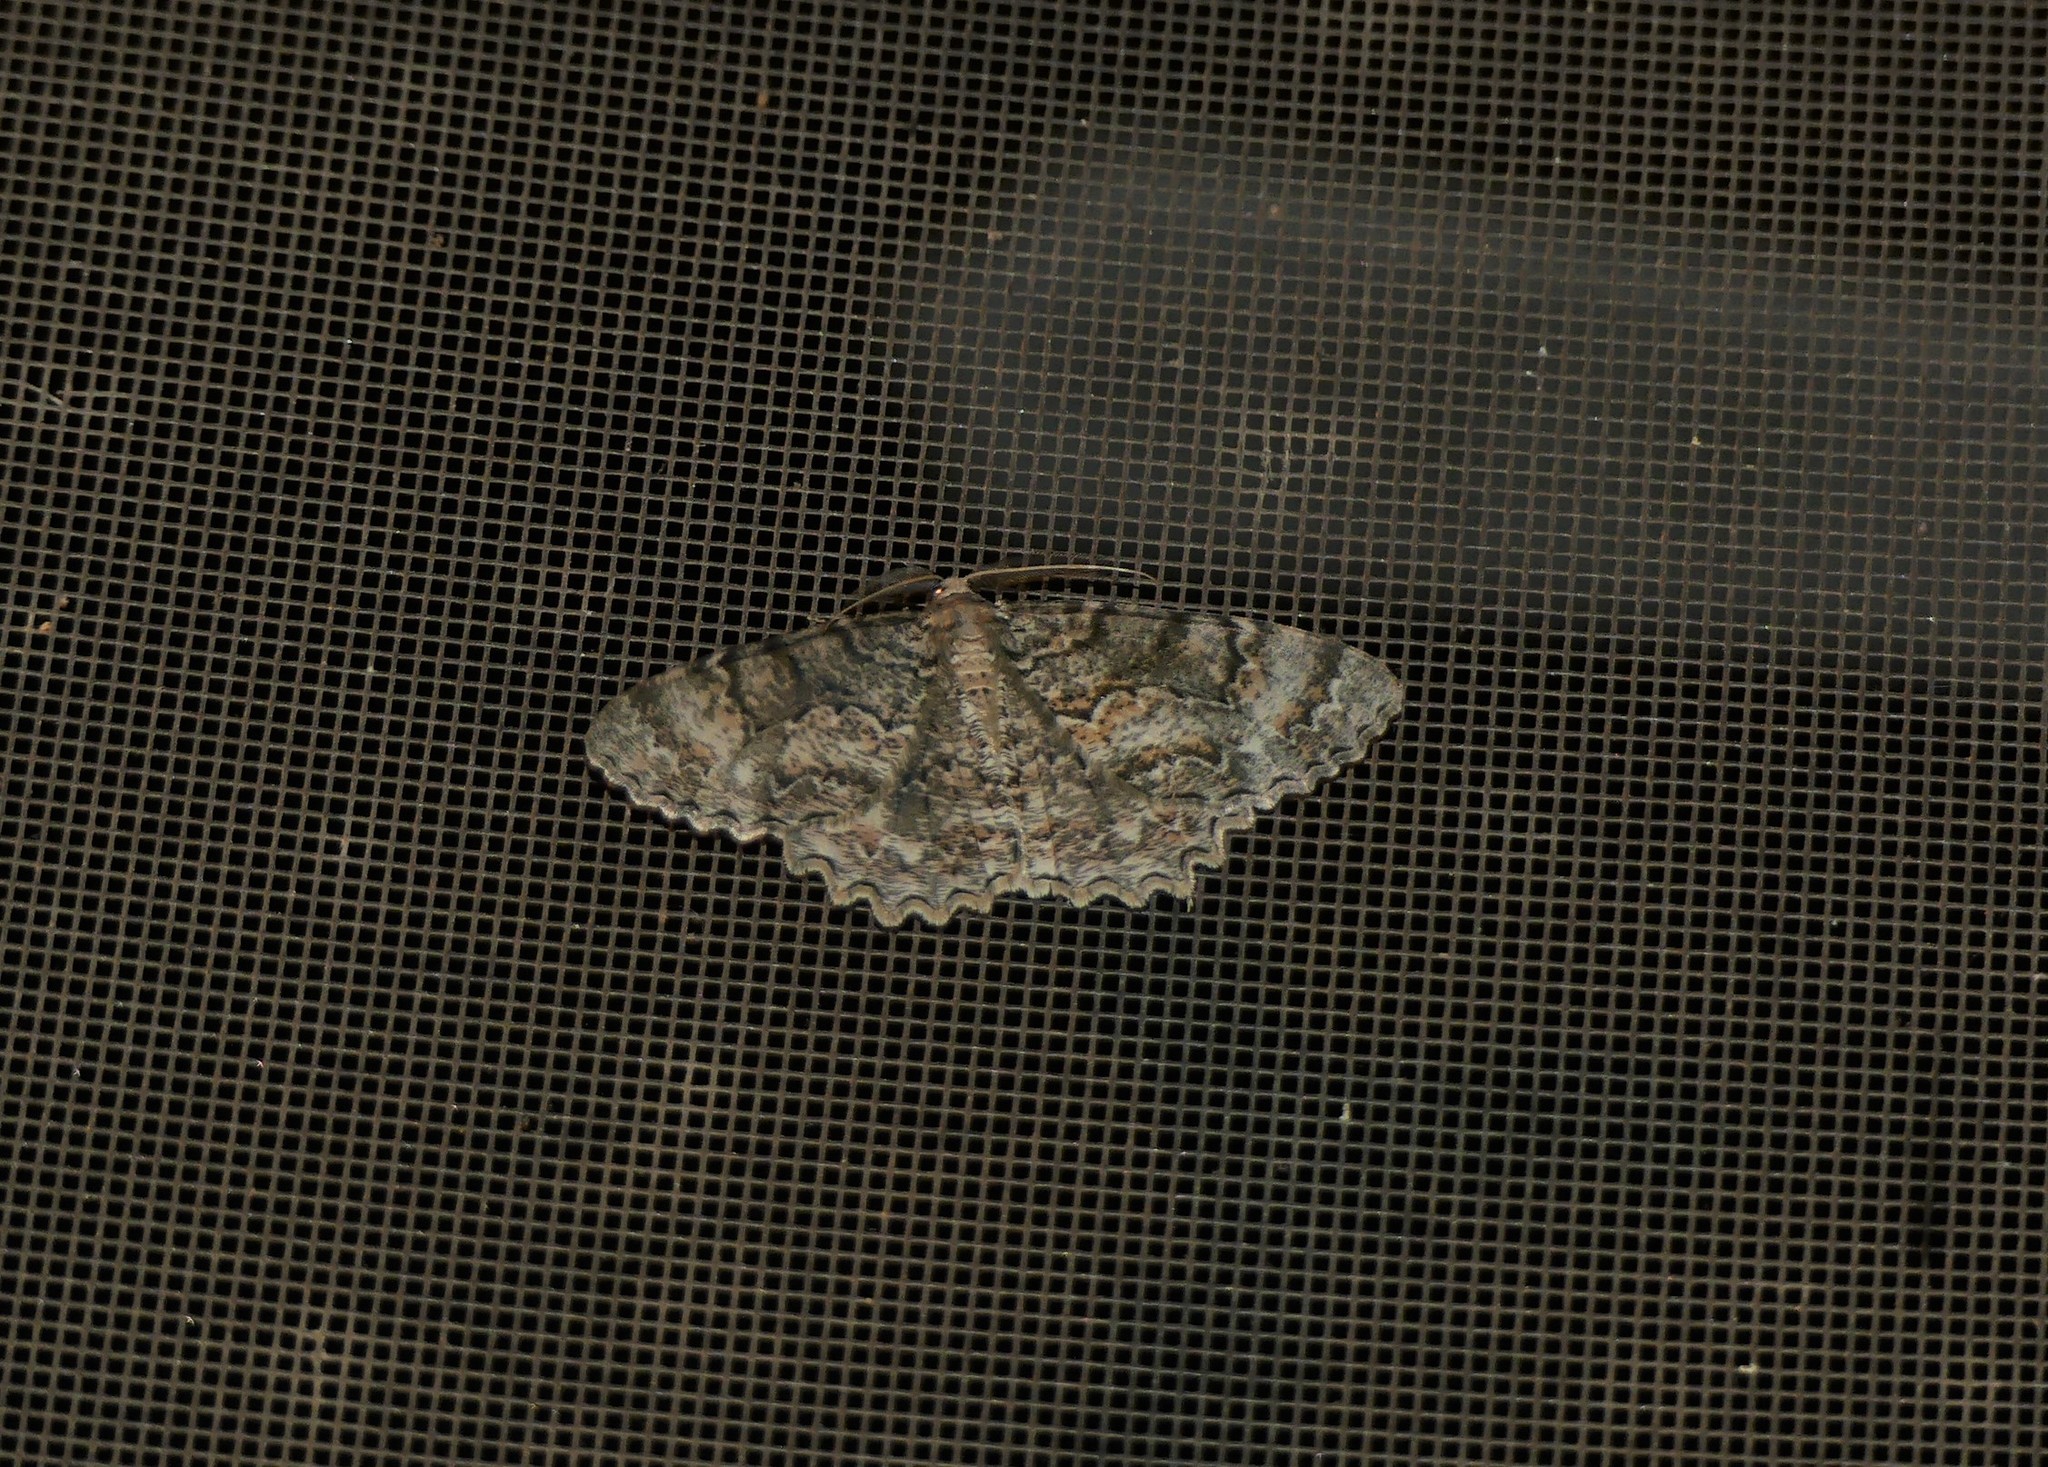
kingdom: Animalia
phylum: Arthropoda
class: Insecta
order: Lepidoptera
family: Geometridae
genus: Epimecis
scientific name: Epimecis hortaria
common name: Tulip-tree beauty
